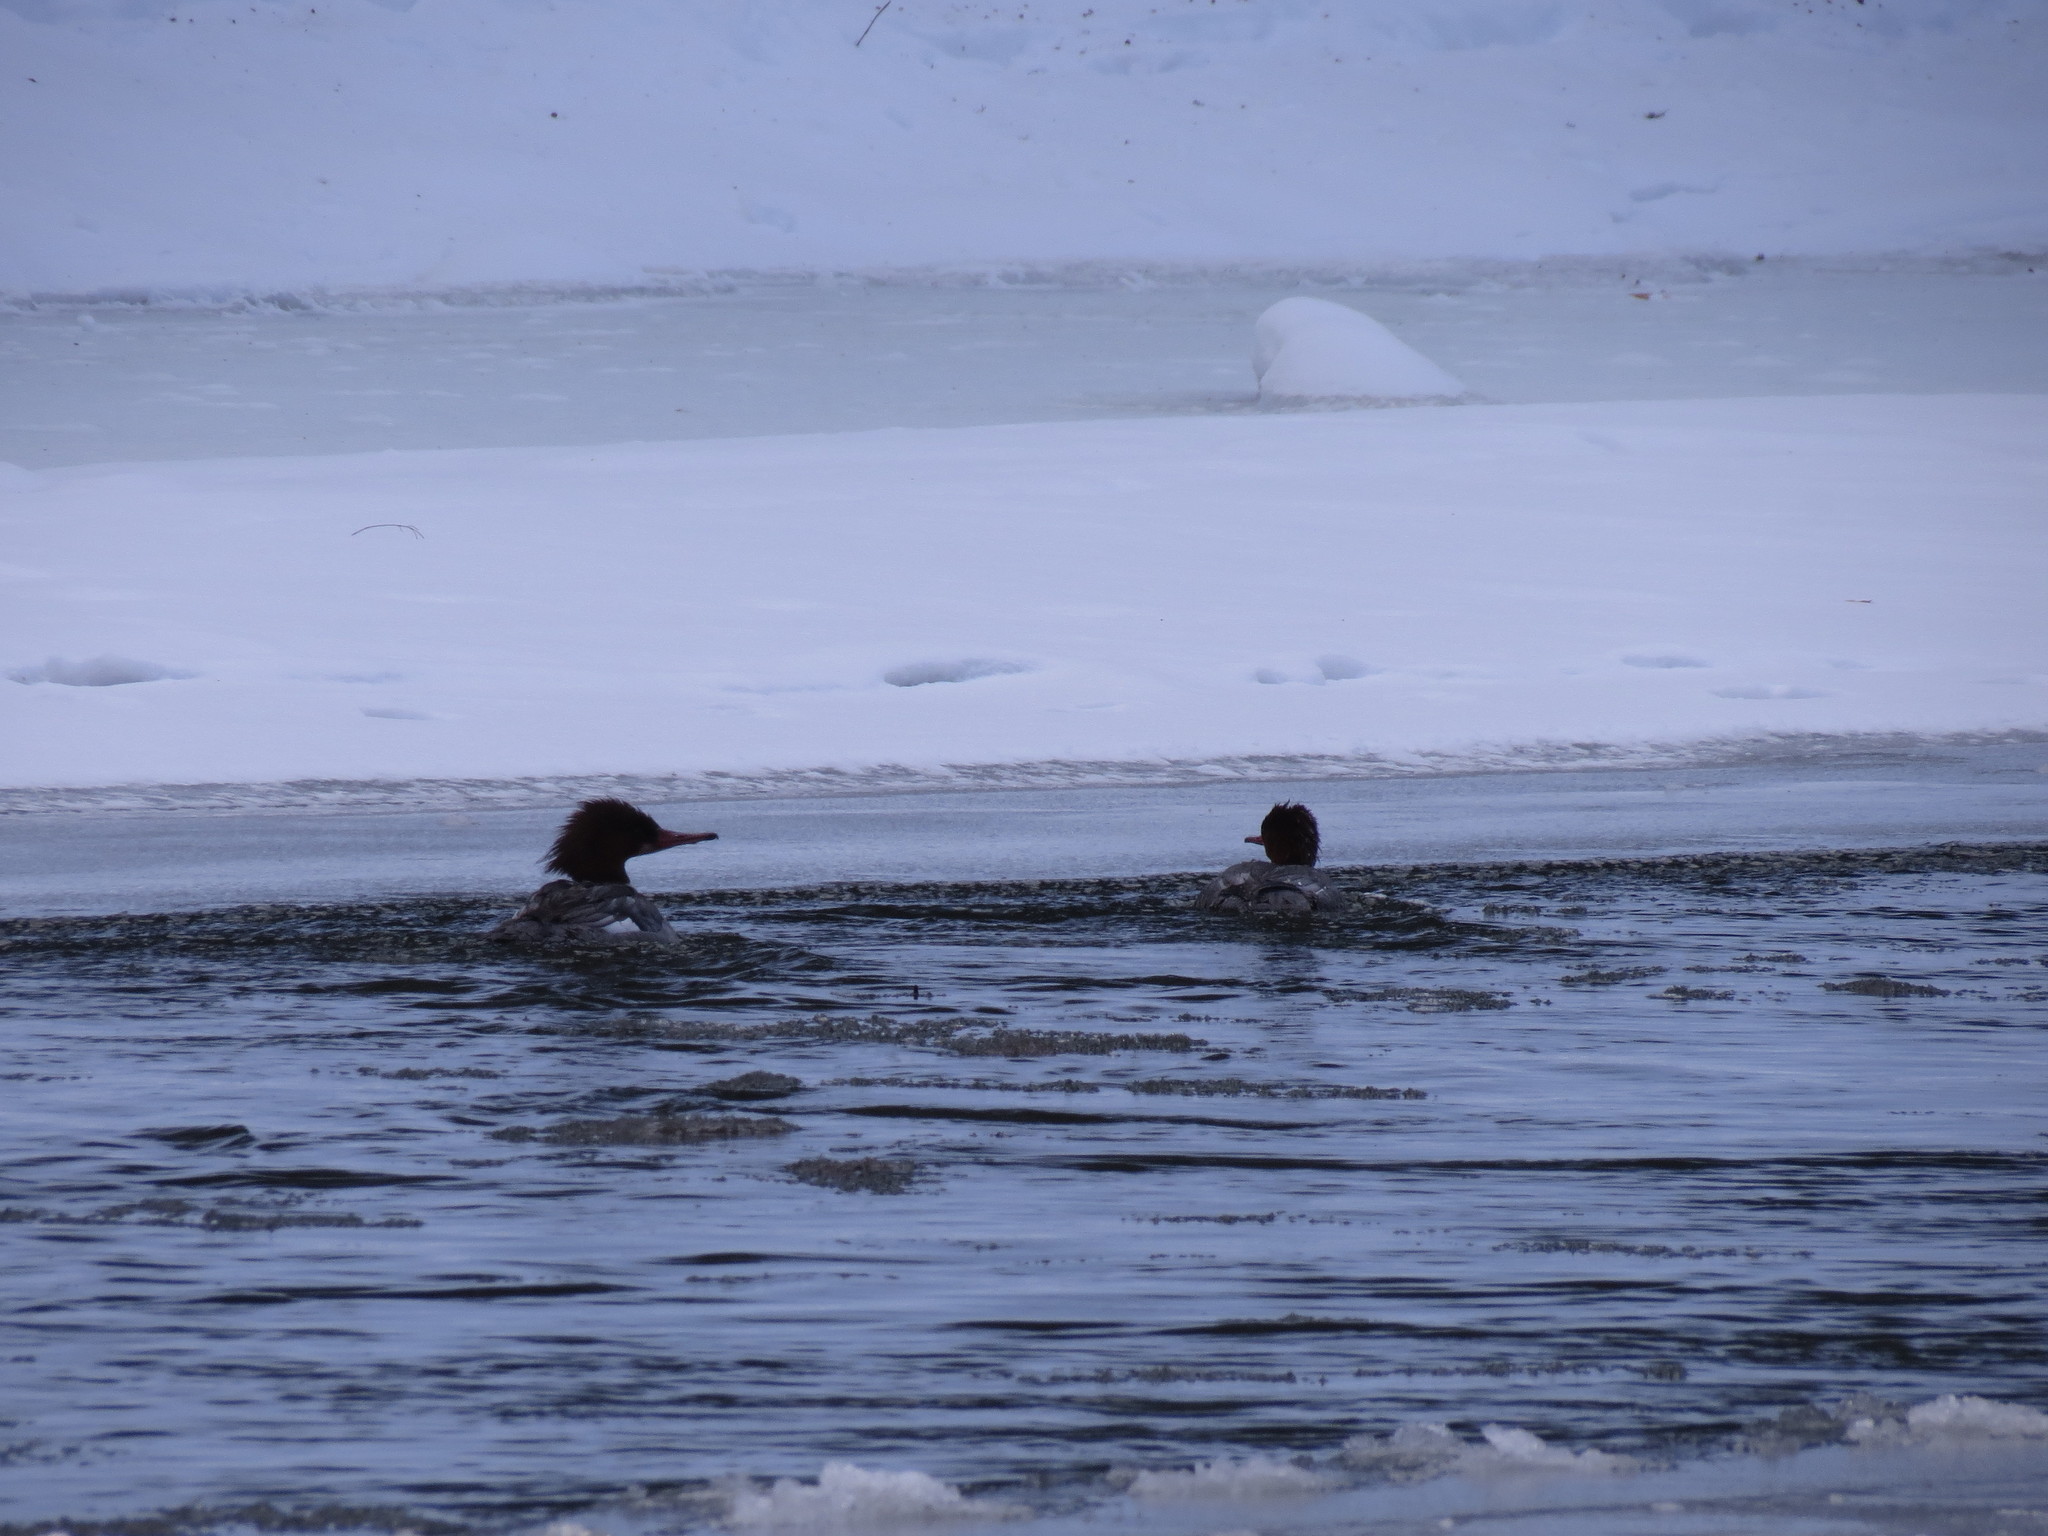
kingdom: Animalia
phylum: Chordata
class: Aves
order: Anseriformes
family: Anatidae
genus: Mergus
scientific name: Mergus merganser
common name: Common merganser
